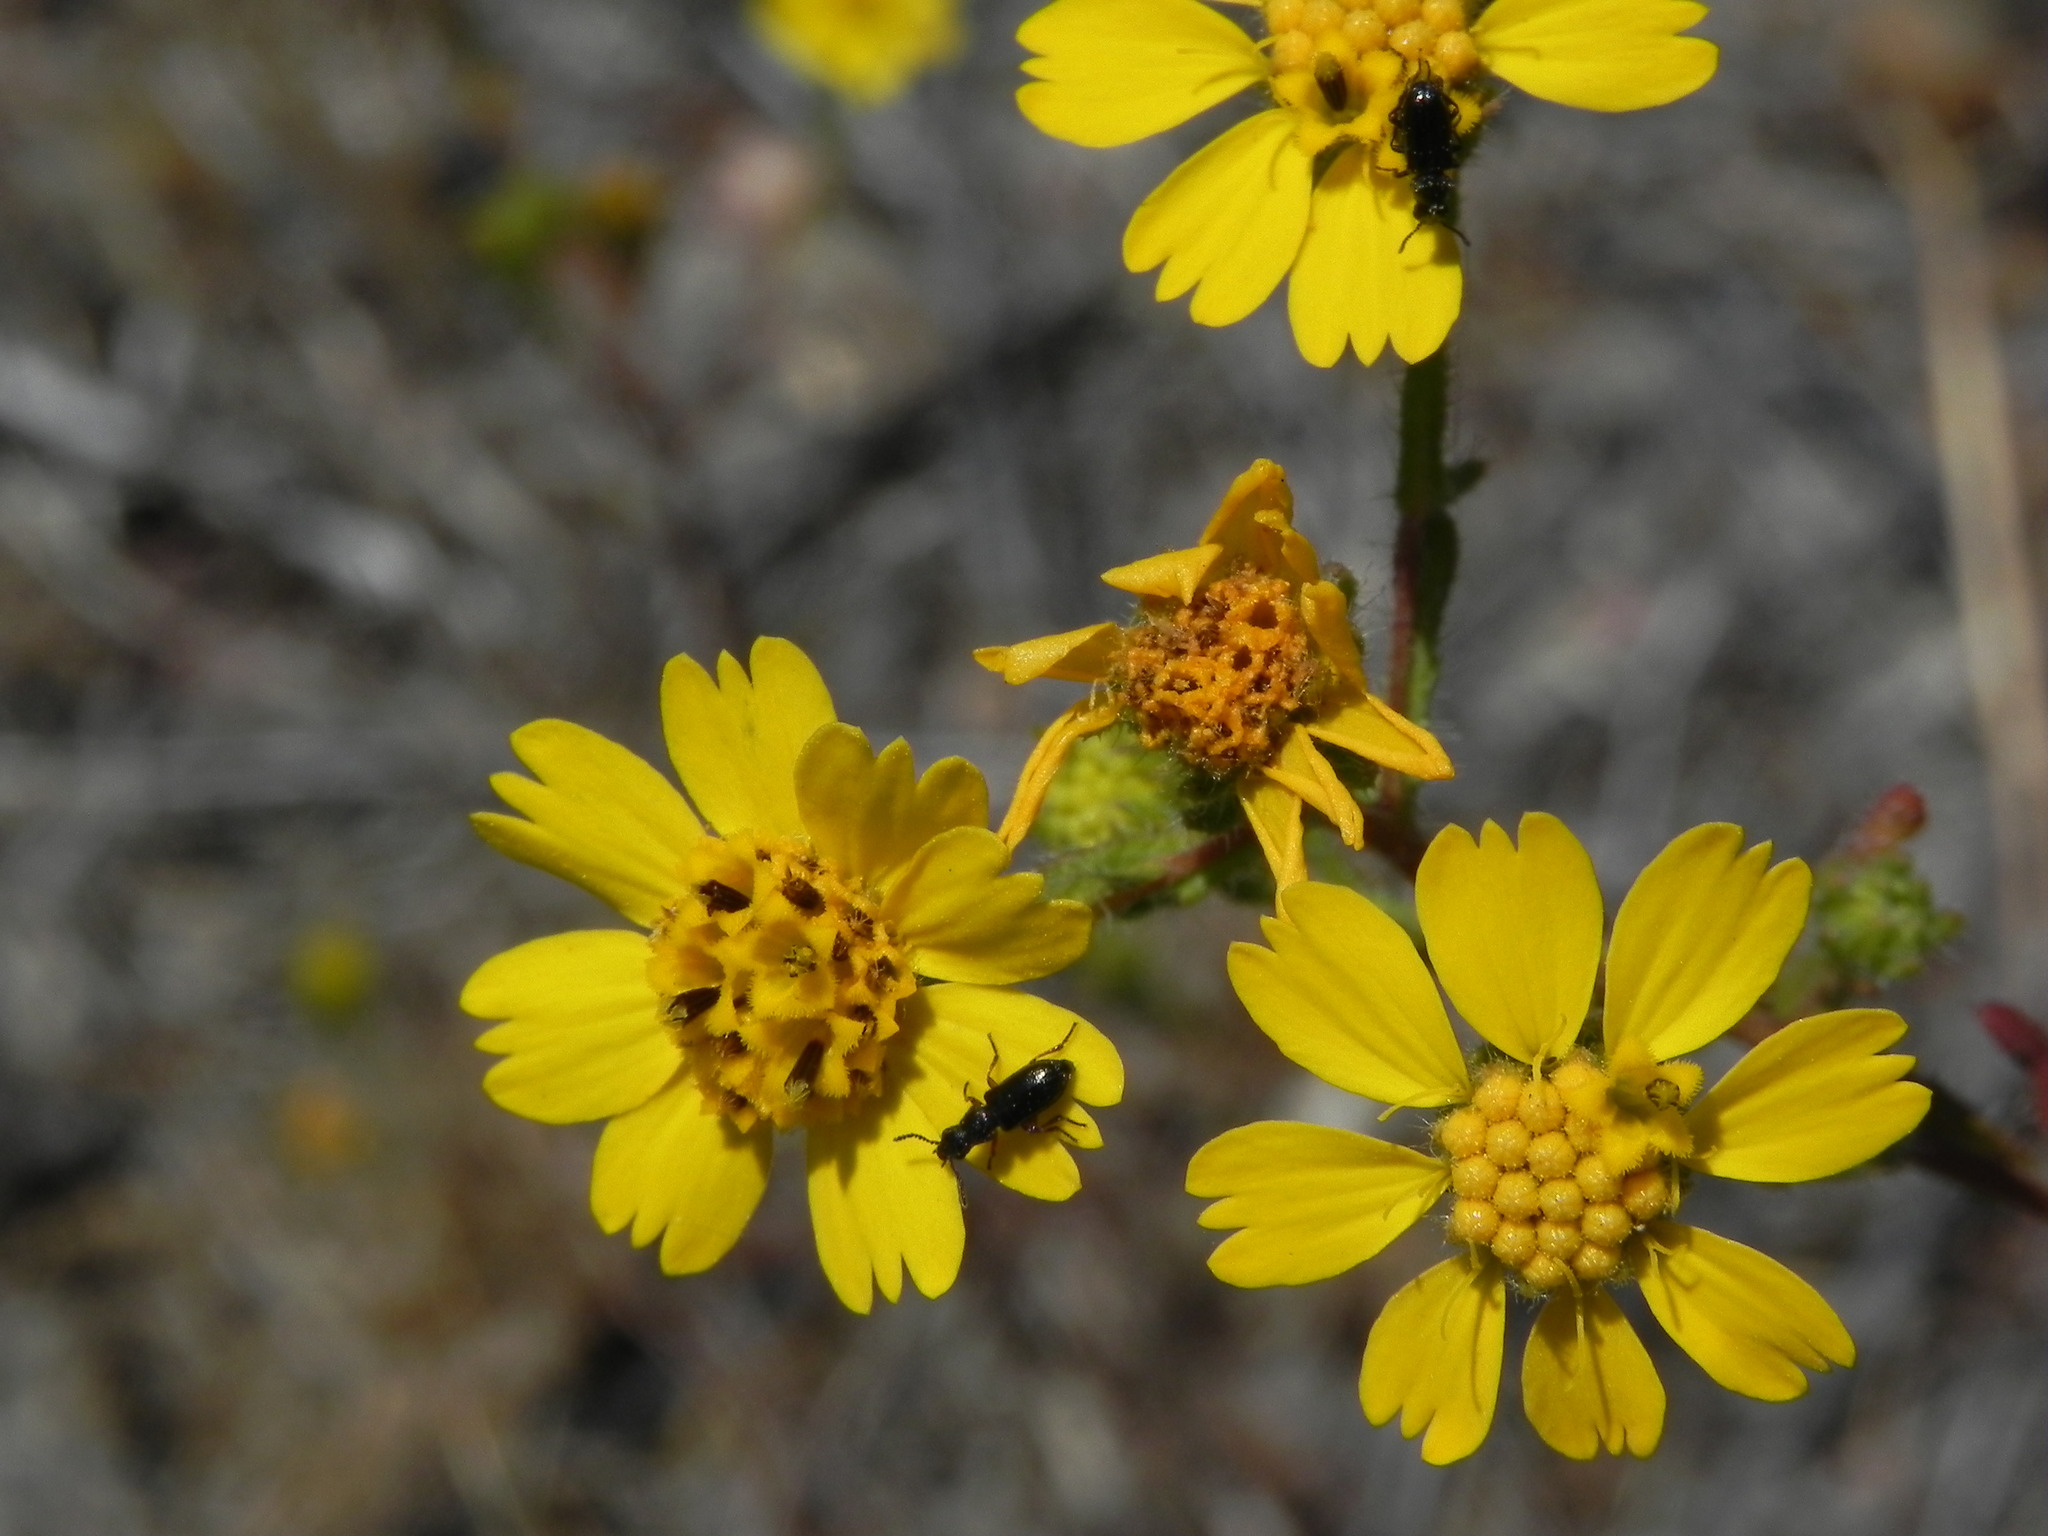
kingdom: Plantae
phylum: Tracheophyta
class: Magnoliopsida
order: Asterales
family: Asteraceae
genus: Deinandra
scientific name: Deinandra conjugens
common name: Otay tarplant
